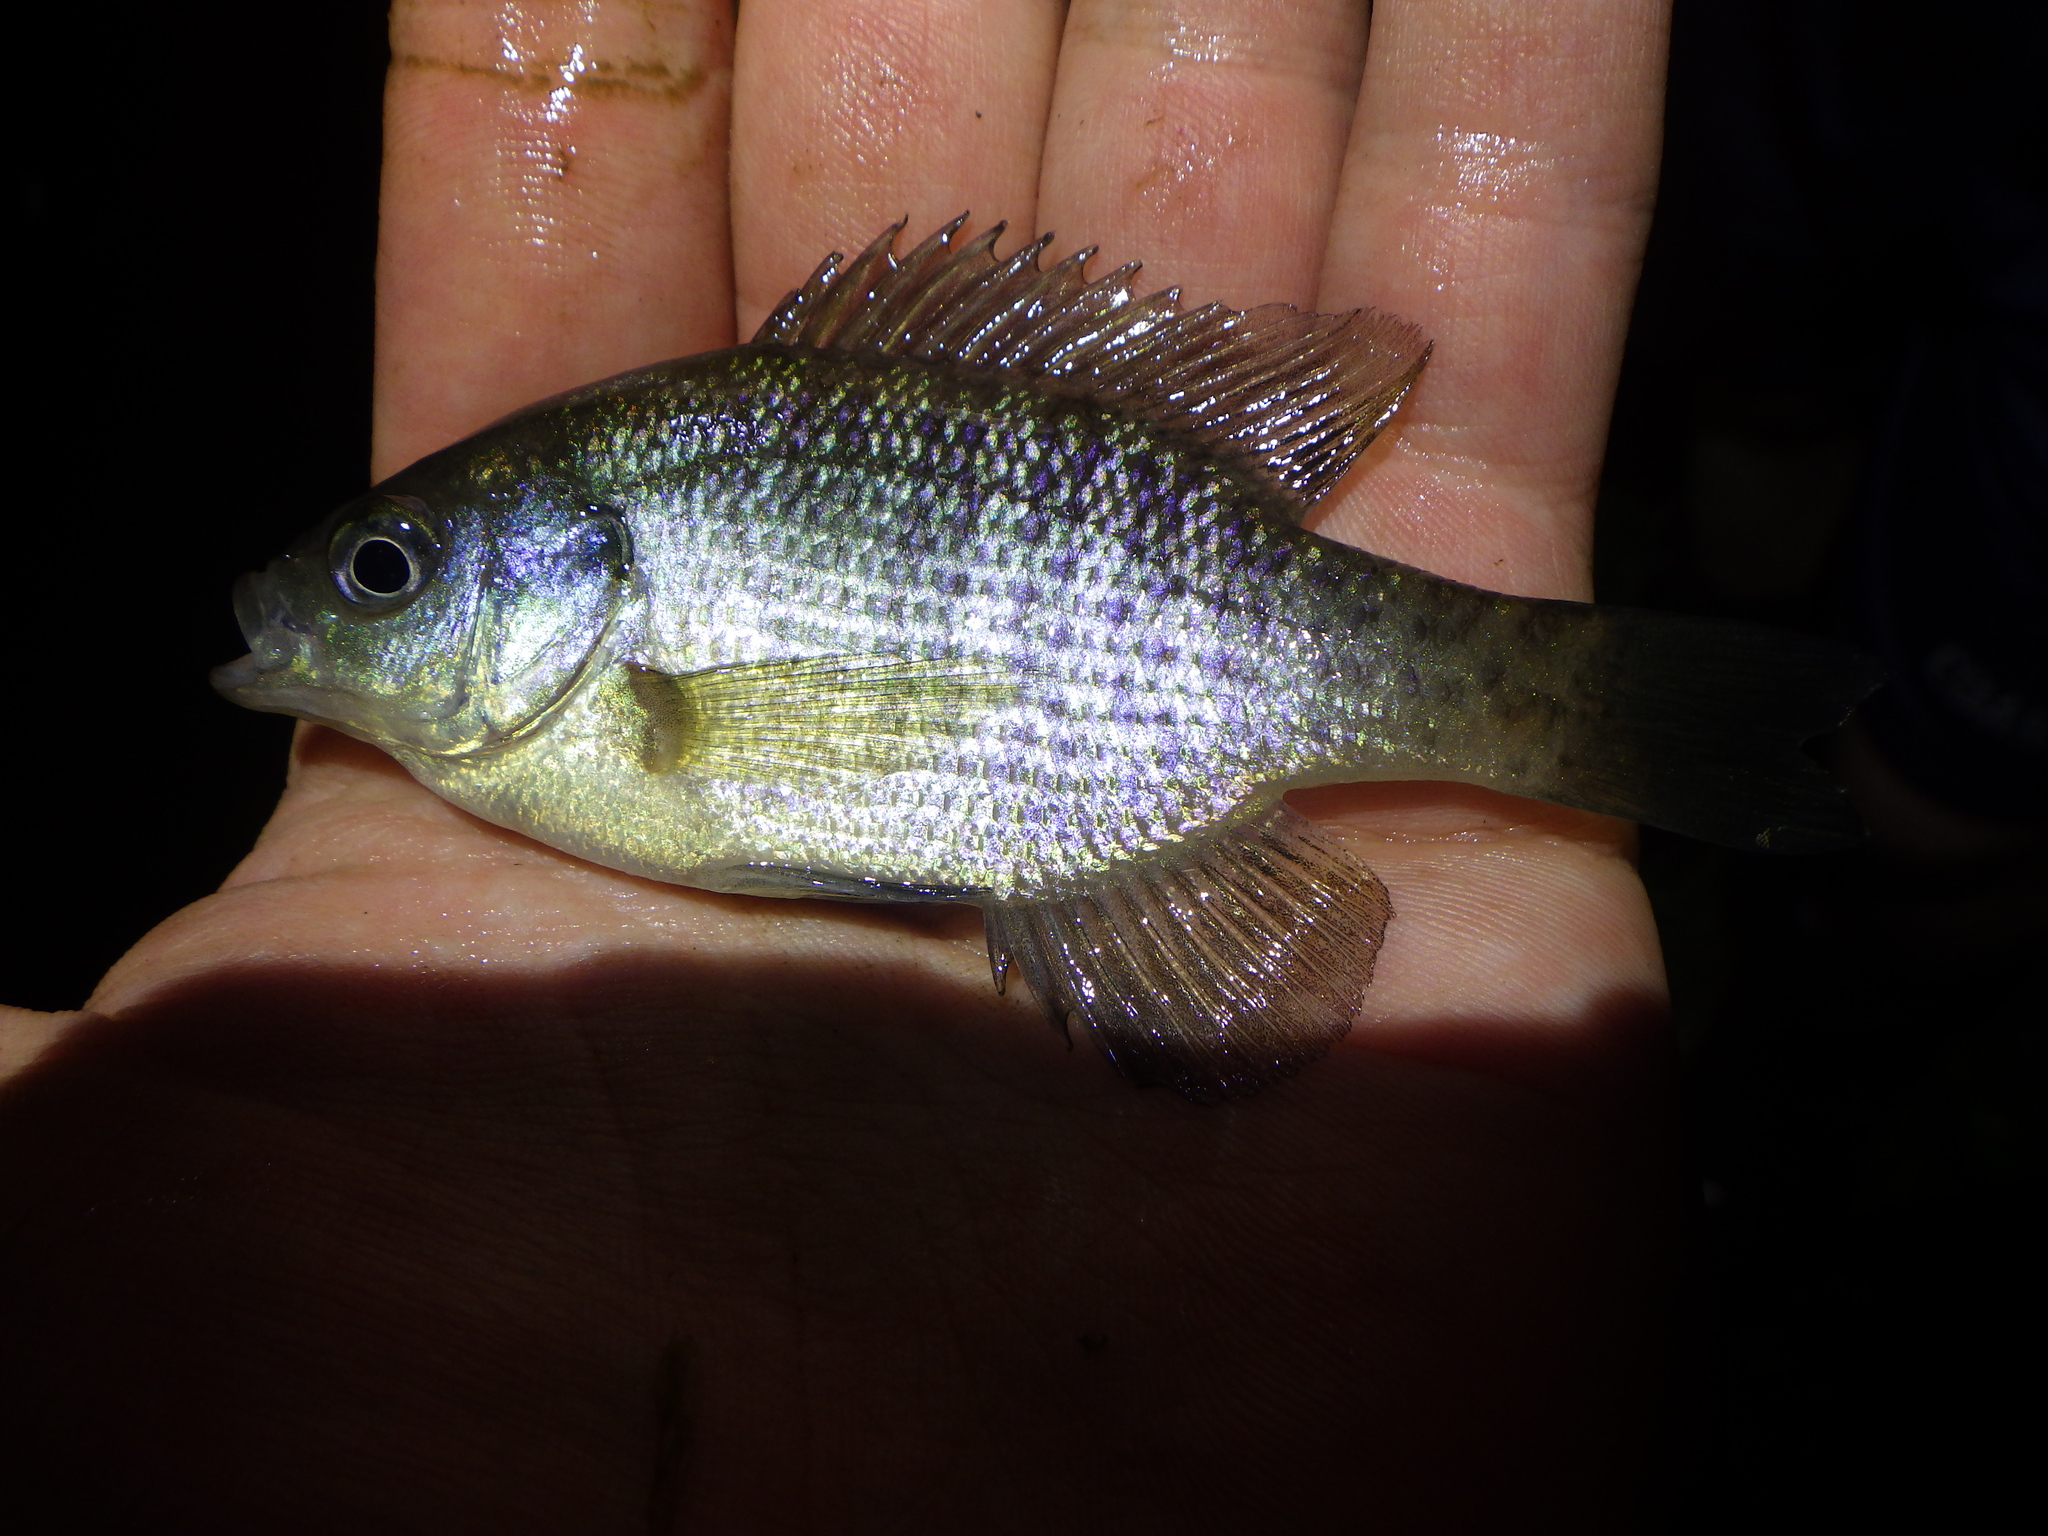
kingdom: Animalia
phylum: Chordata
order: Perciformes
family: Centrarchidae
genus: Lepomis
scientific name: Lepomis macrochirus
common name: Bluegill
